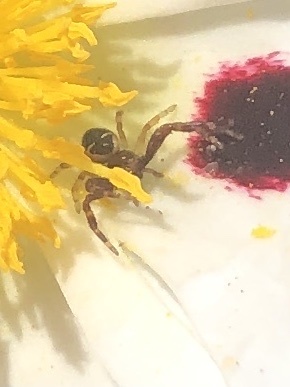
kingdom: Animalia
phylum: Arthropoda
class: Arachnida
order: Araneae
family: Thomisidae
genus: Synema
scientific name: Synema globosum
